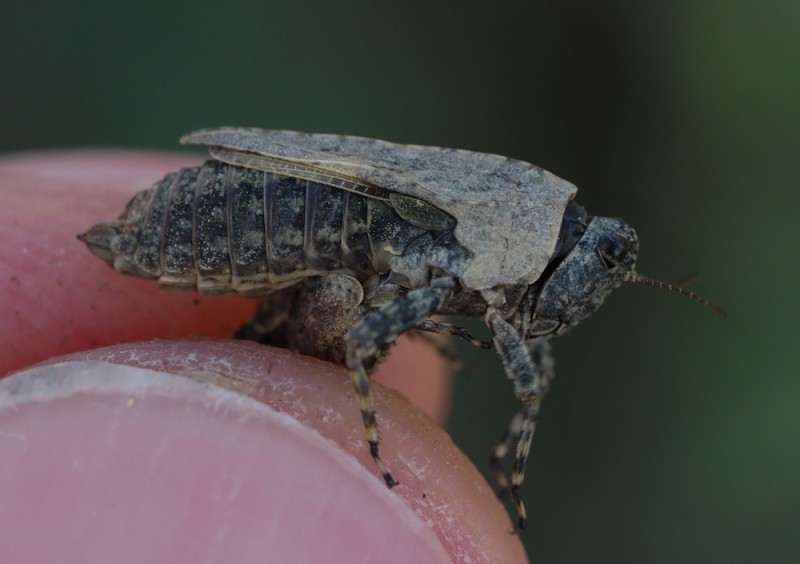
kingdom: Animalia
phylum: Arthropoda
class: Insecta
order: Orthoptera
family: Tetrigidae
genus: Tetrix
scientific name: Tetrix tenuicornis
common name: Long-horned groundhopper
